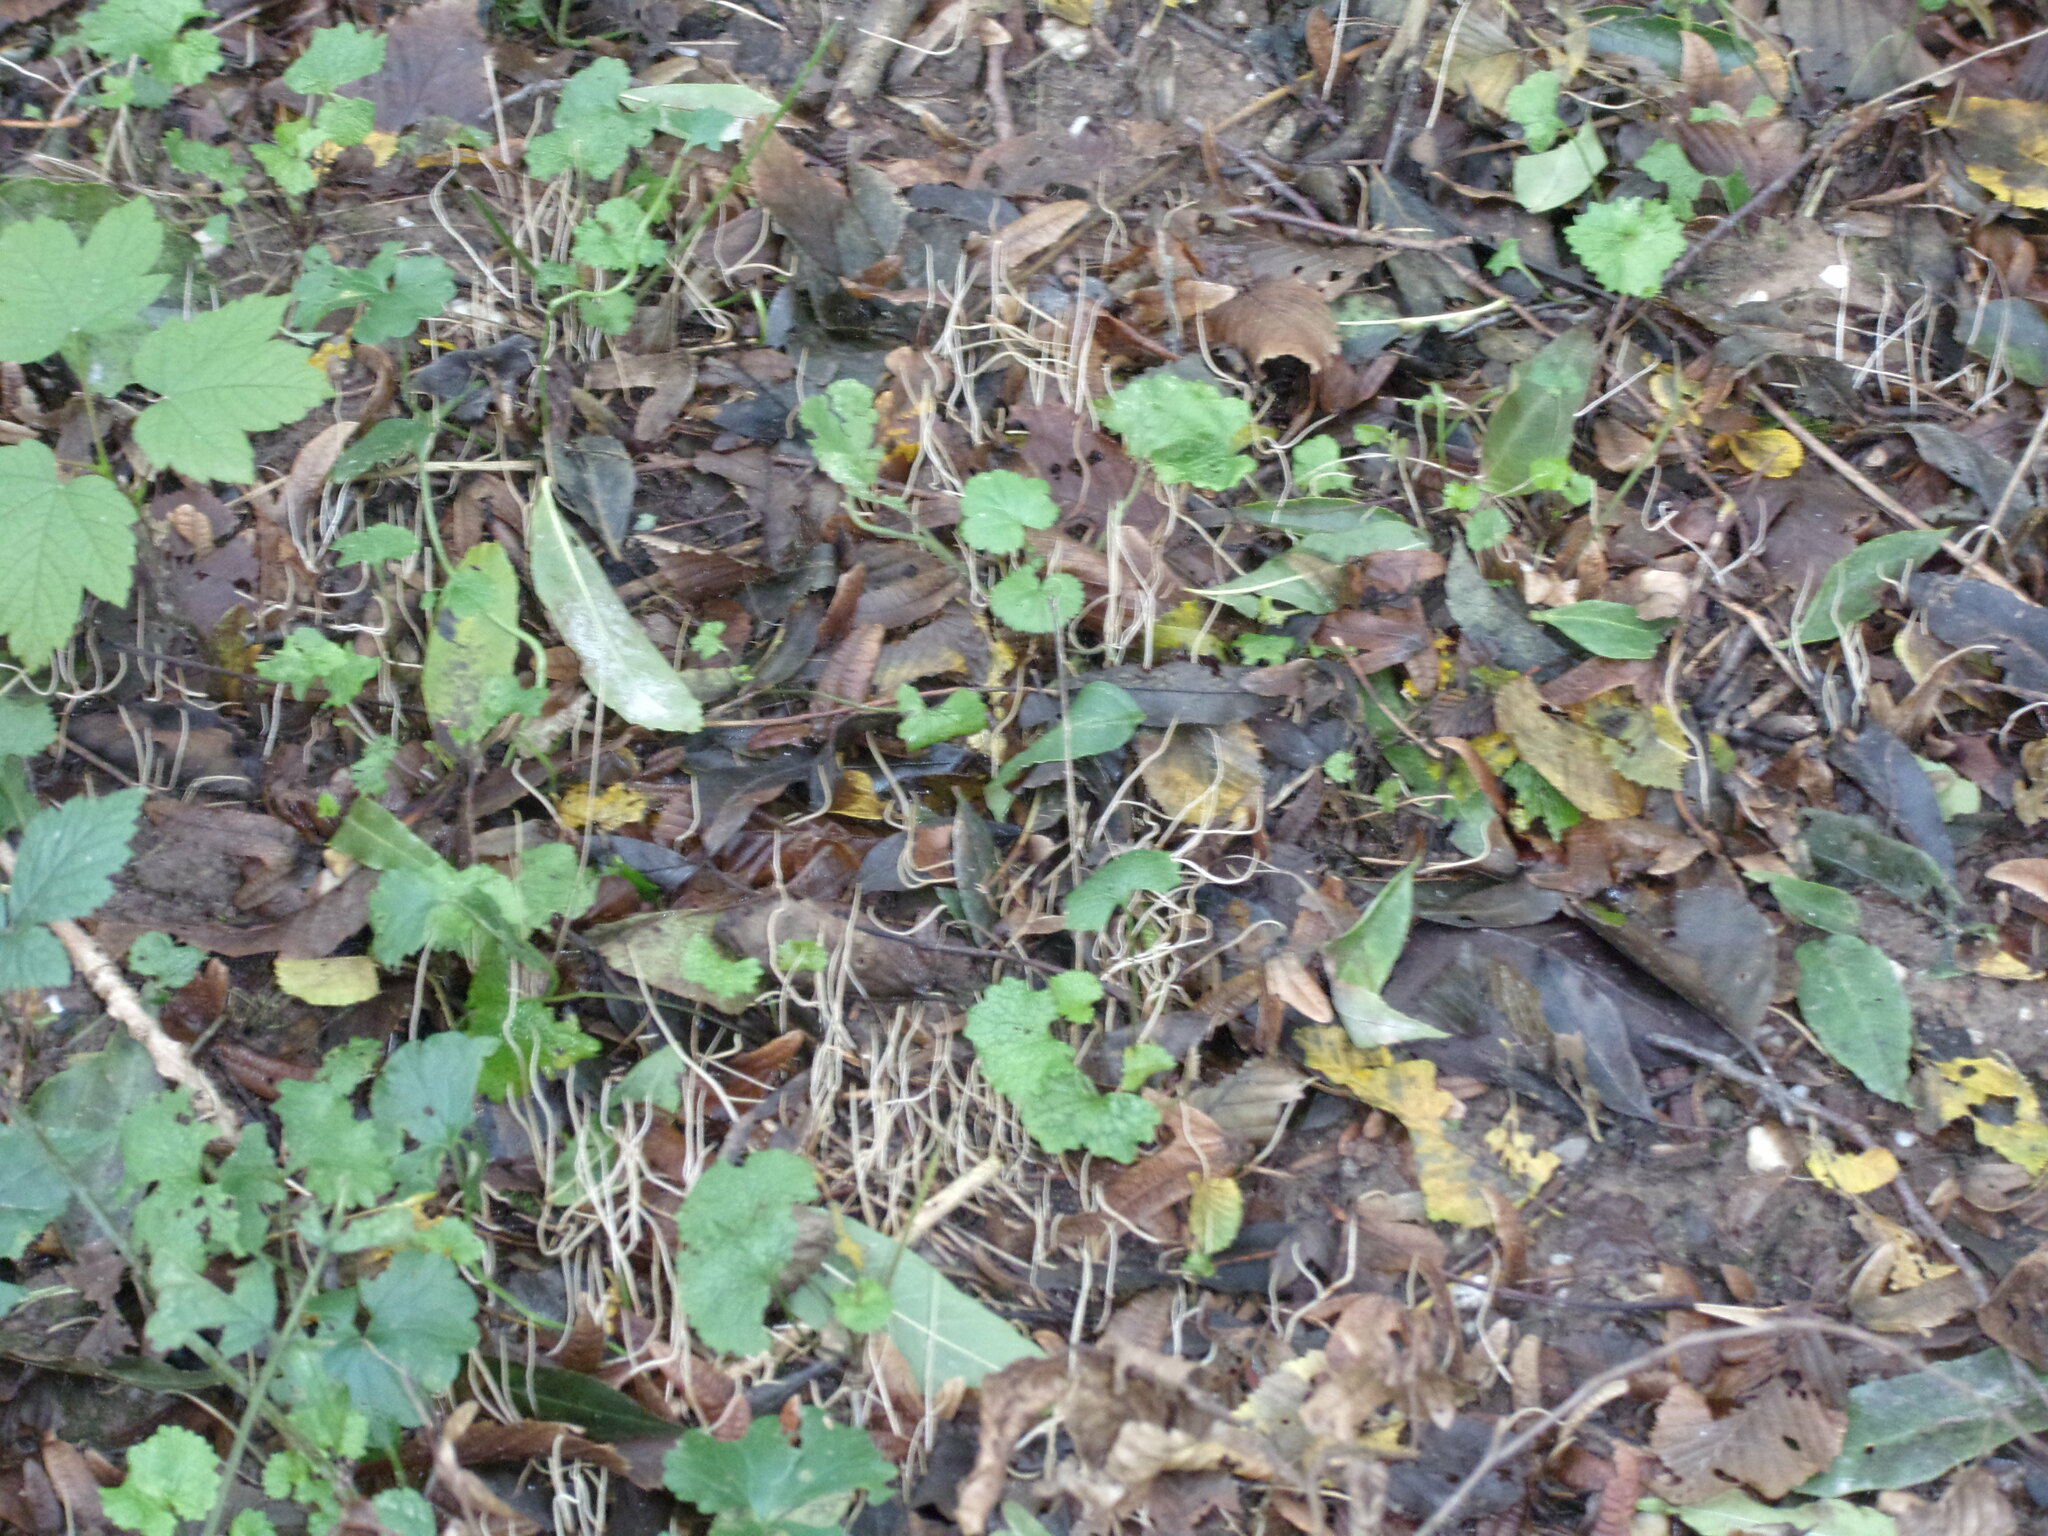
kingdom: Fungi
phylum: Basidiomycota
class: Agaricomycetes
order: Agaricales
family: Typhulaceae
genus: Typhula
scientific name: Typhula juncea
